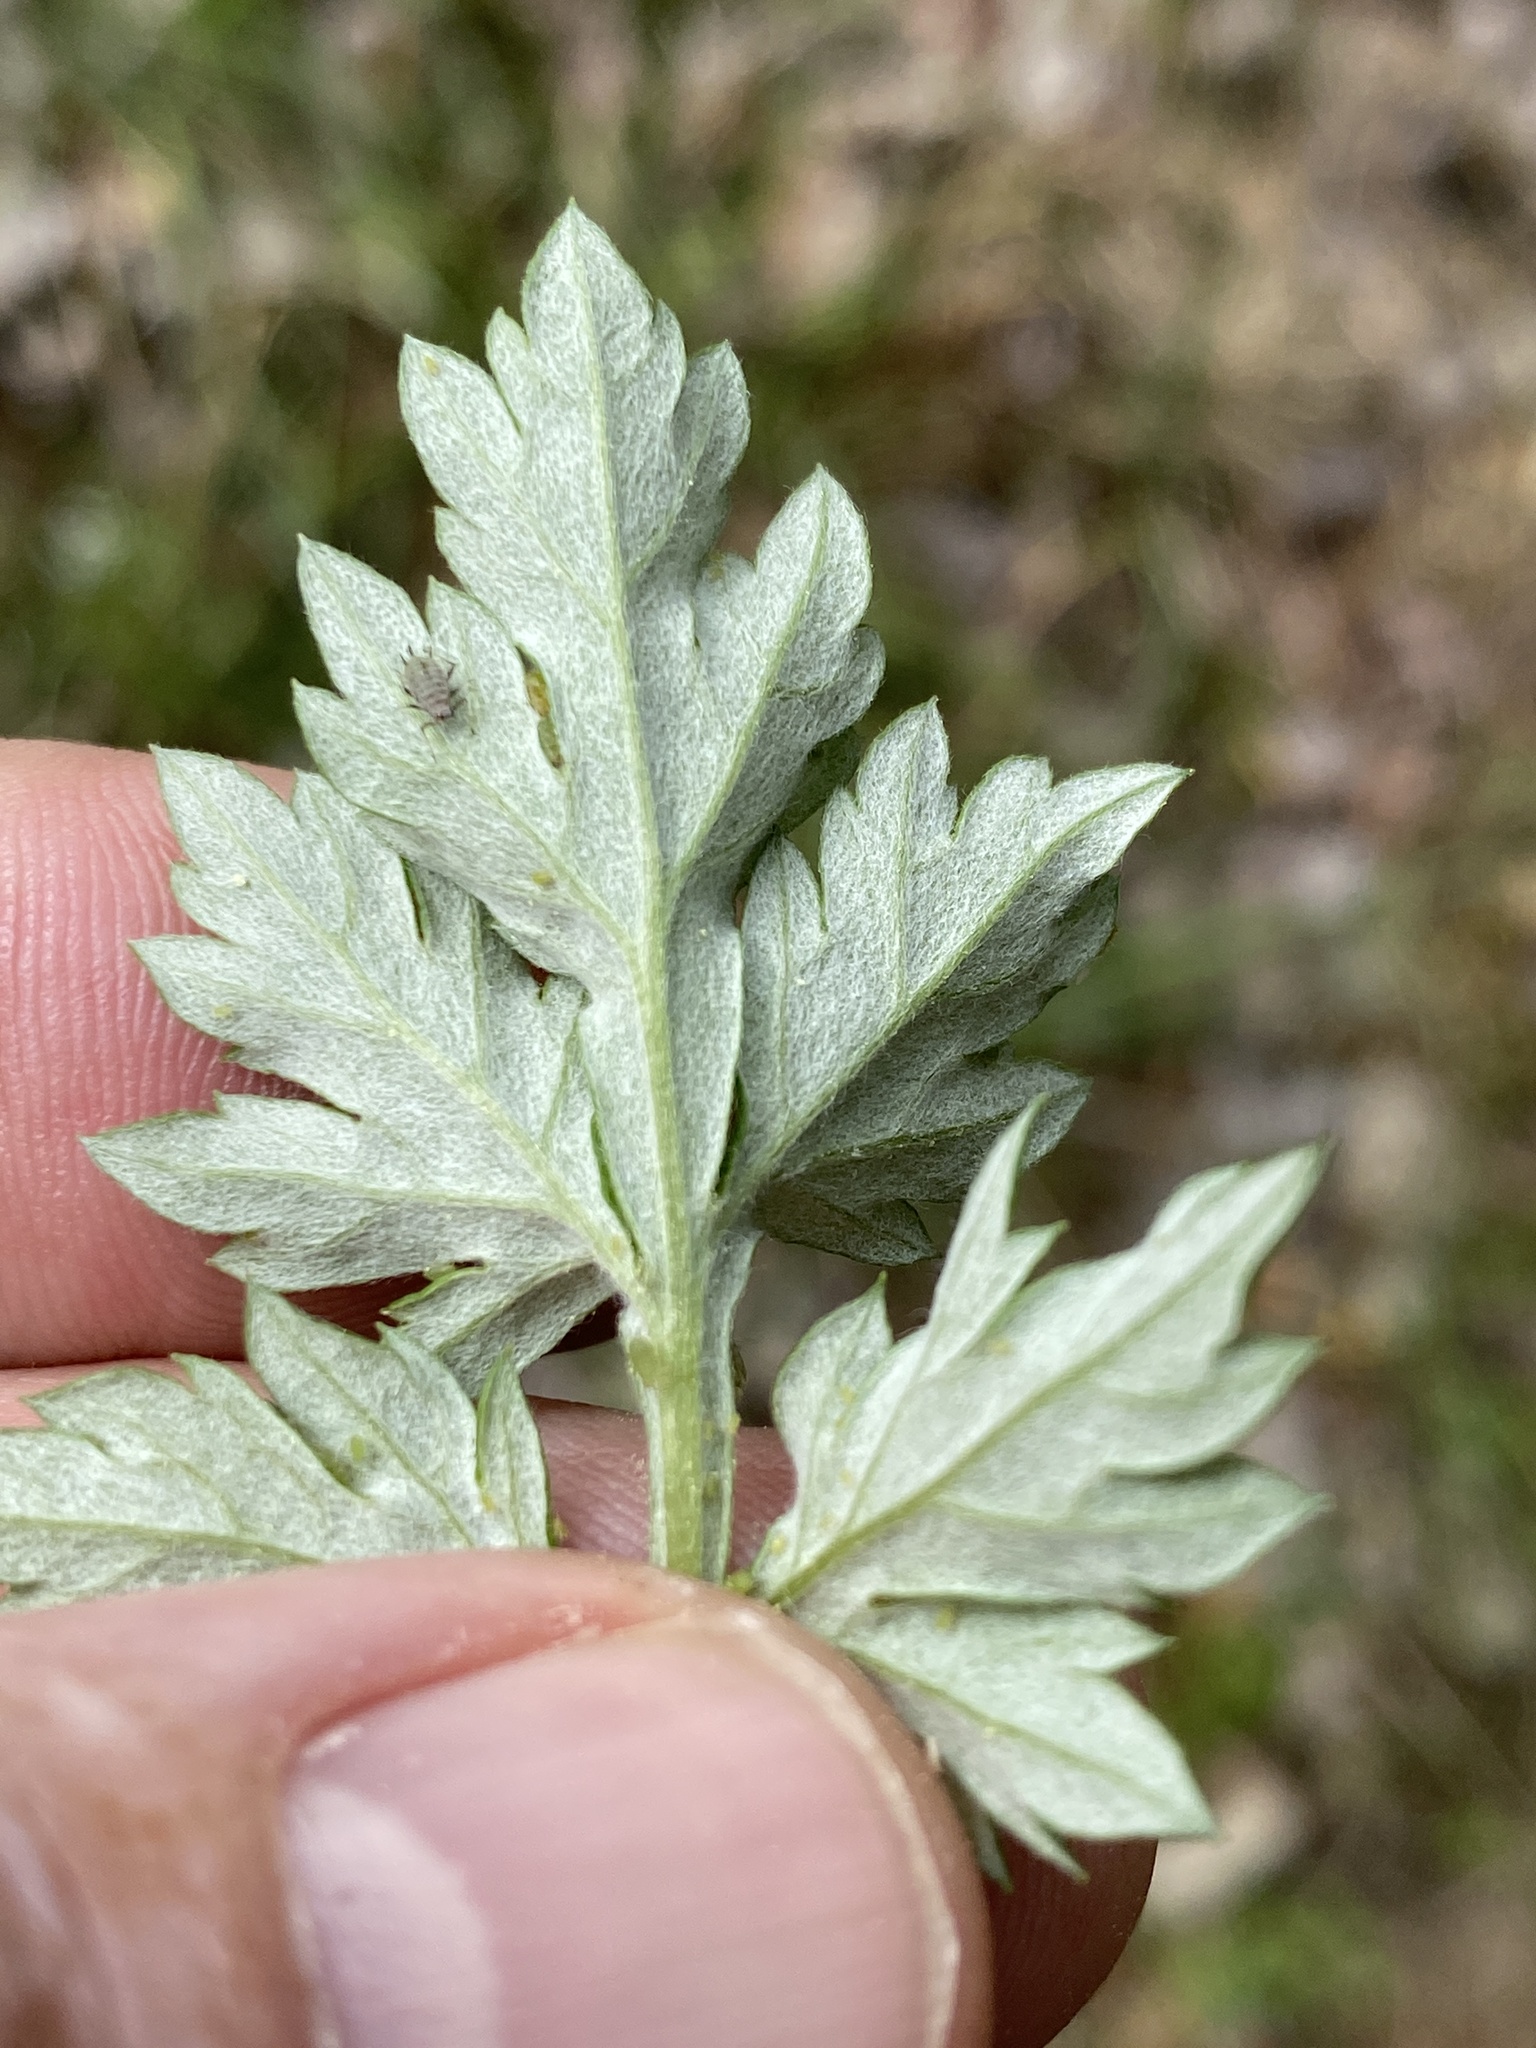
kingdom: Plantae
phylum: Tracheophyta
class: Magnoliopsida
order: Asterales
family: Asteraceae
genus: Artemisia
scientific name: Artemisia vulgaris
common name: Mugwort
